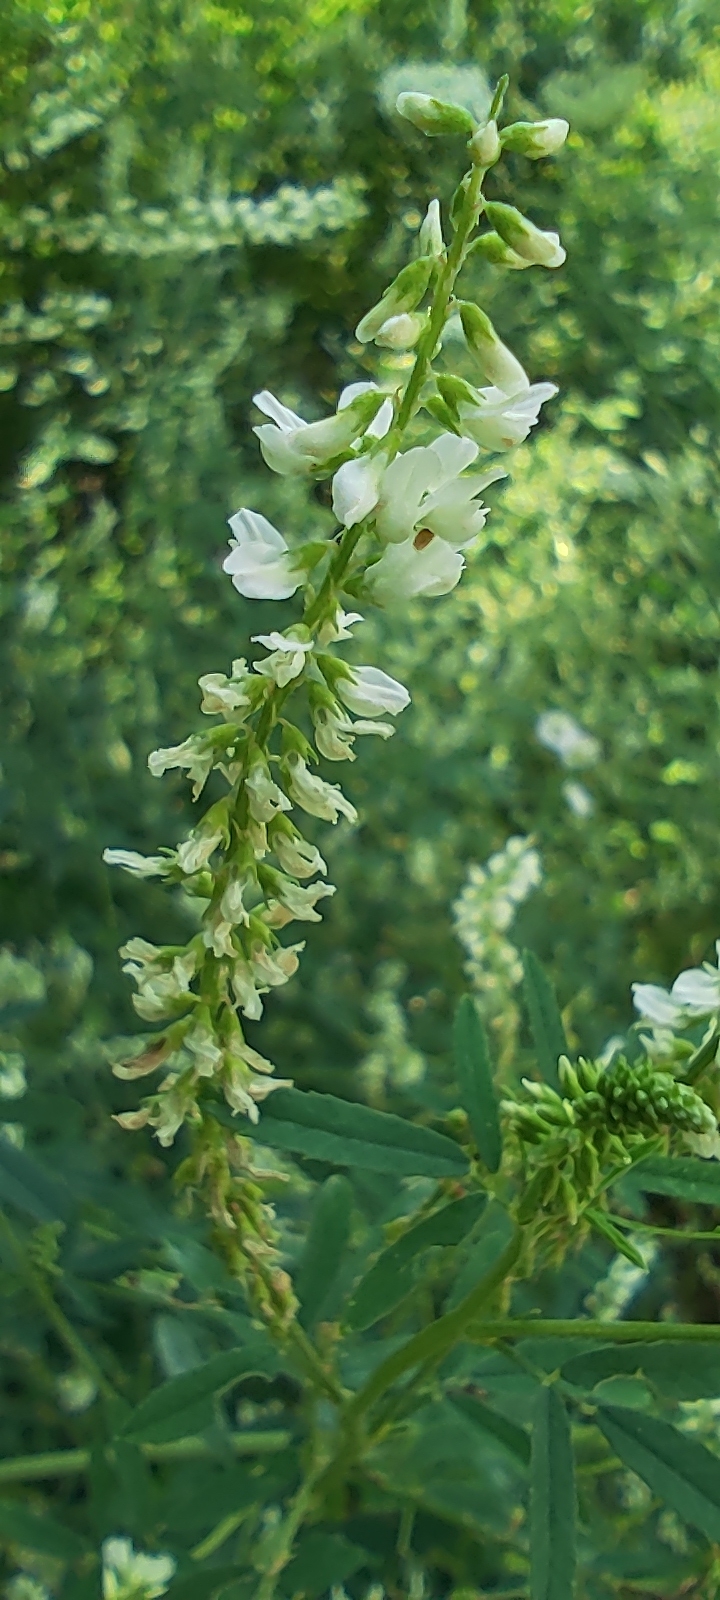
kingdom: Plantae
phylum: Tracheophyta
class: Magnoliopsida
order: Fabales
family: Fabaceae
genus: Melilotus
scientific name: Melilotus albus
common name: White melilot
